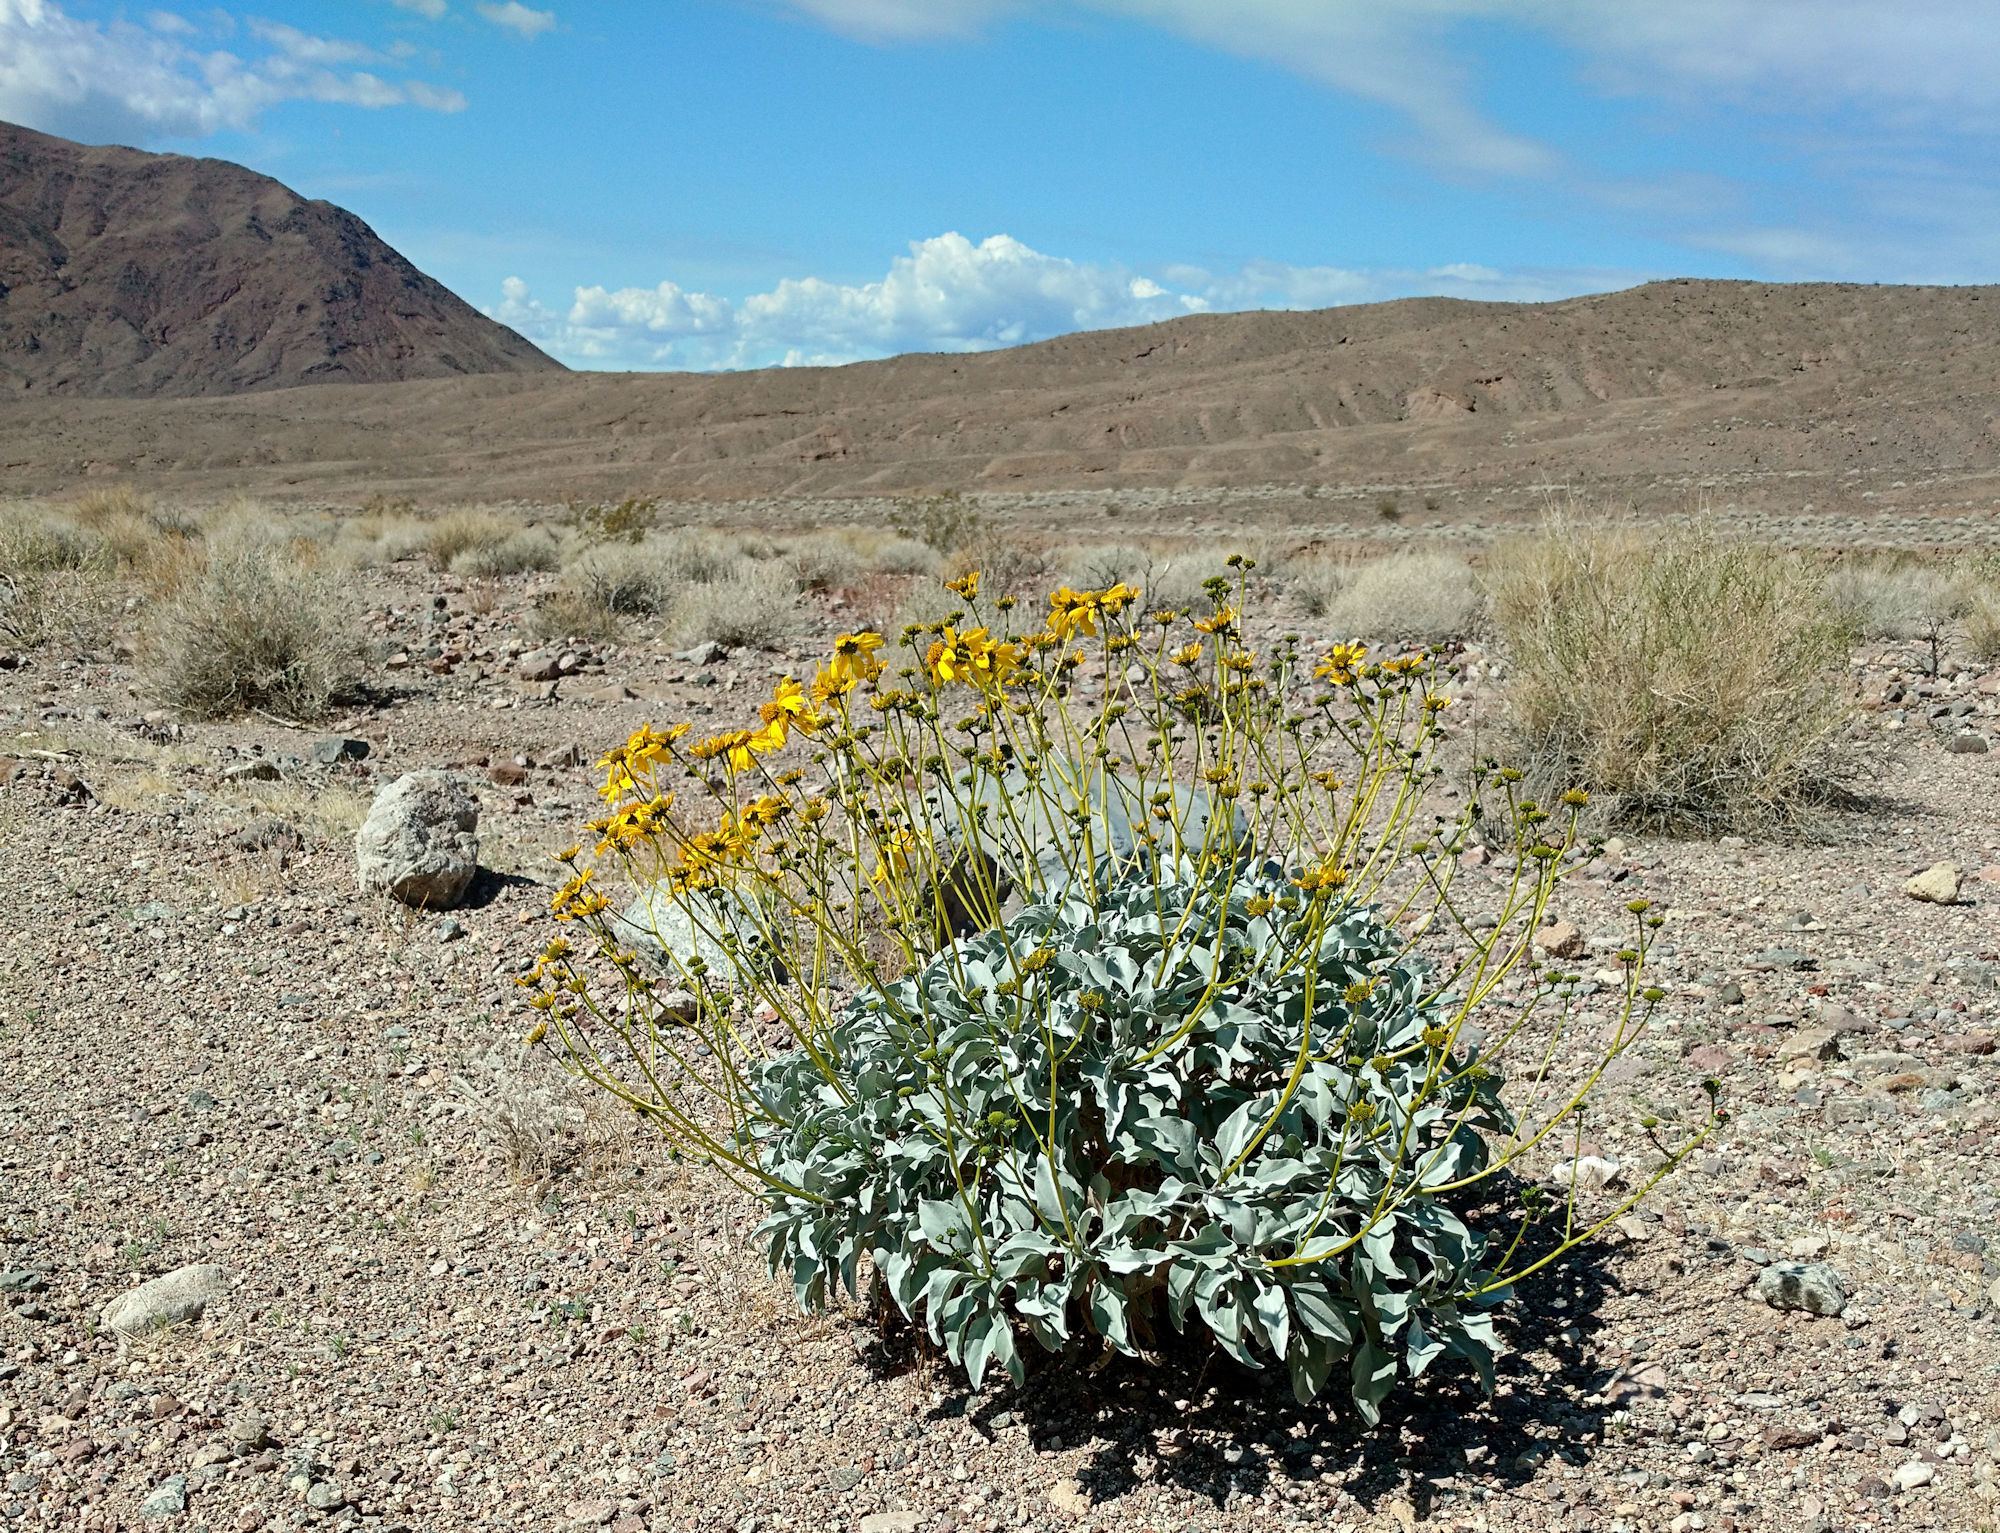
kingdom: Plantae
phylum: Tracheophyta
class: Magnoliopsida
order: Asterales
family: Asteraceae
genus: Encelia
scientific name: Encelia farinosa
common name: Brittlebush
